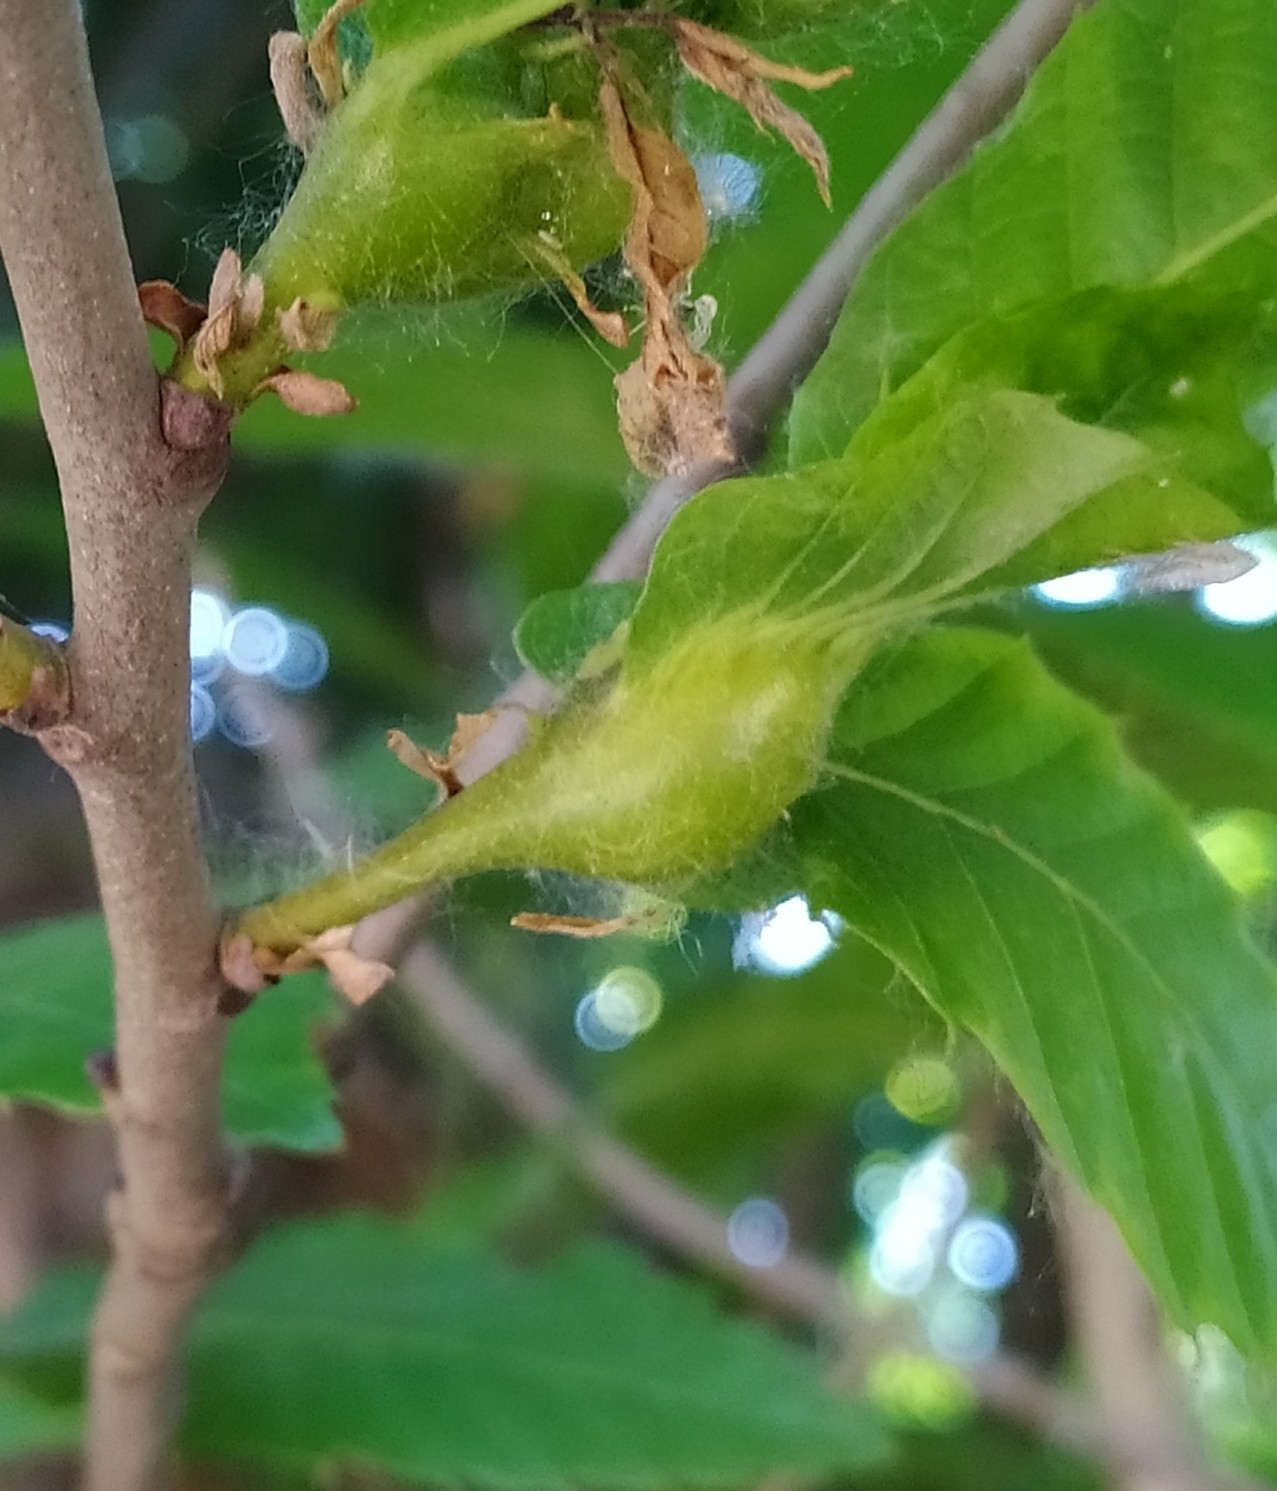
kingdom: Animalia
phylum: Arthropoda
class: Insecta
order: Hymenoptera
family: Cynipidae
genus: Dryocosmus
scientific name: Dryocosmus kuriphilus
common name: Asian chestnut gall wasp
